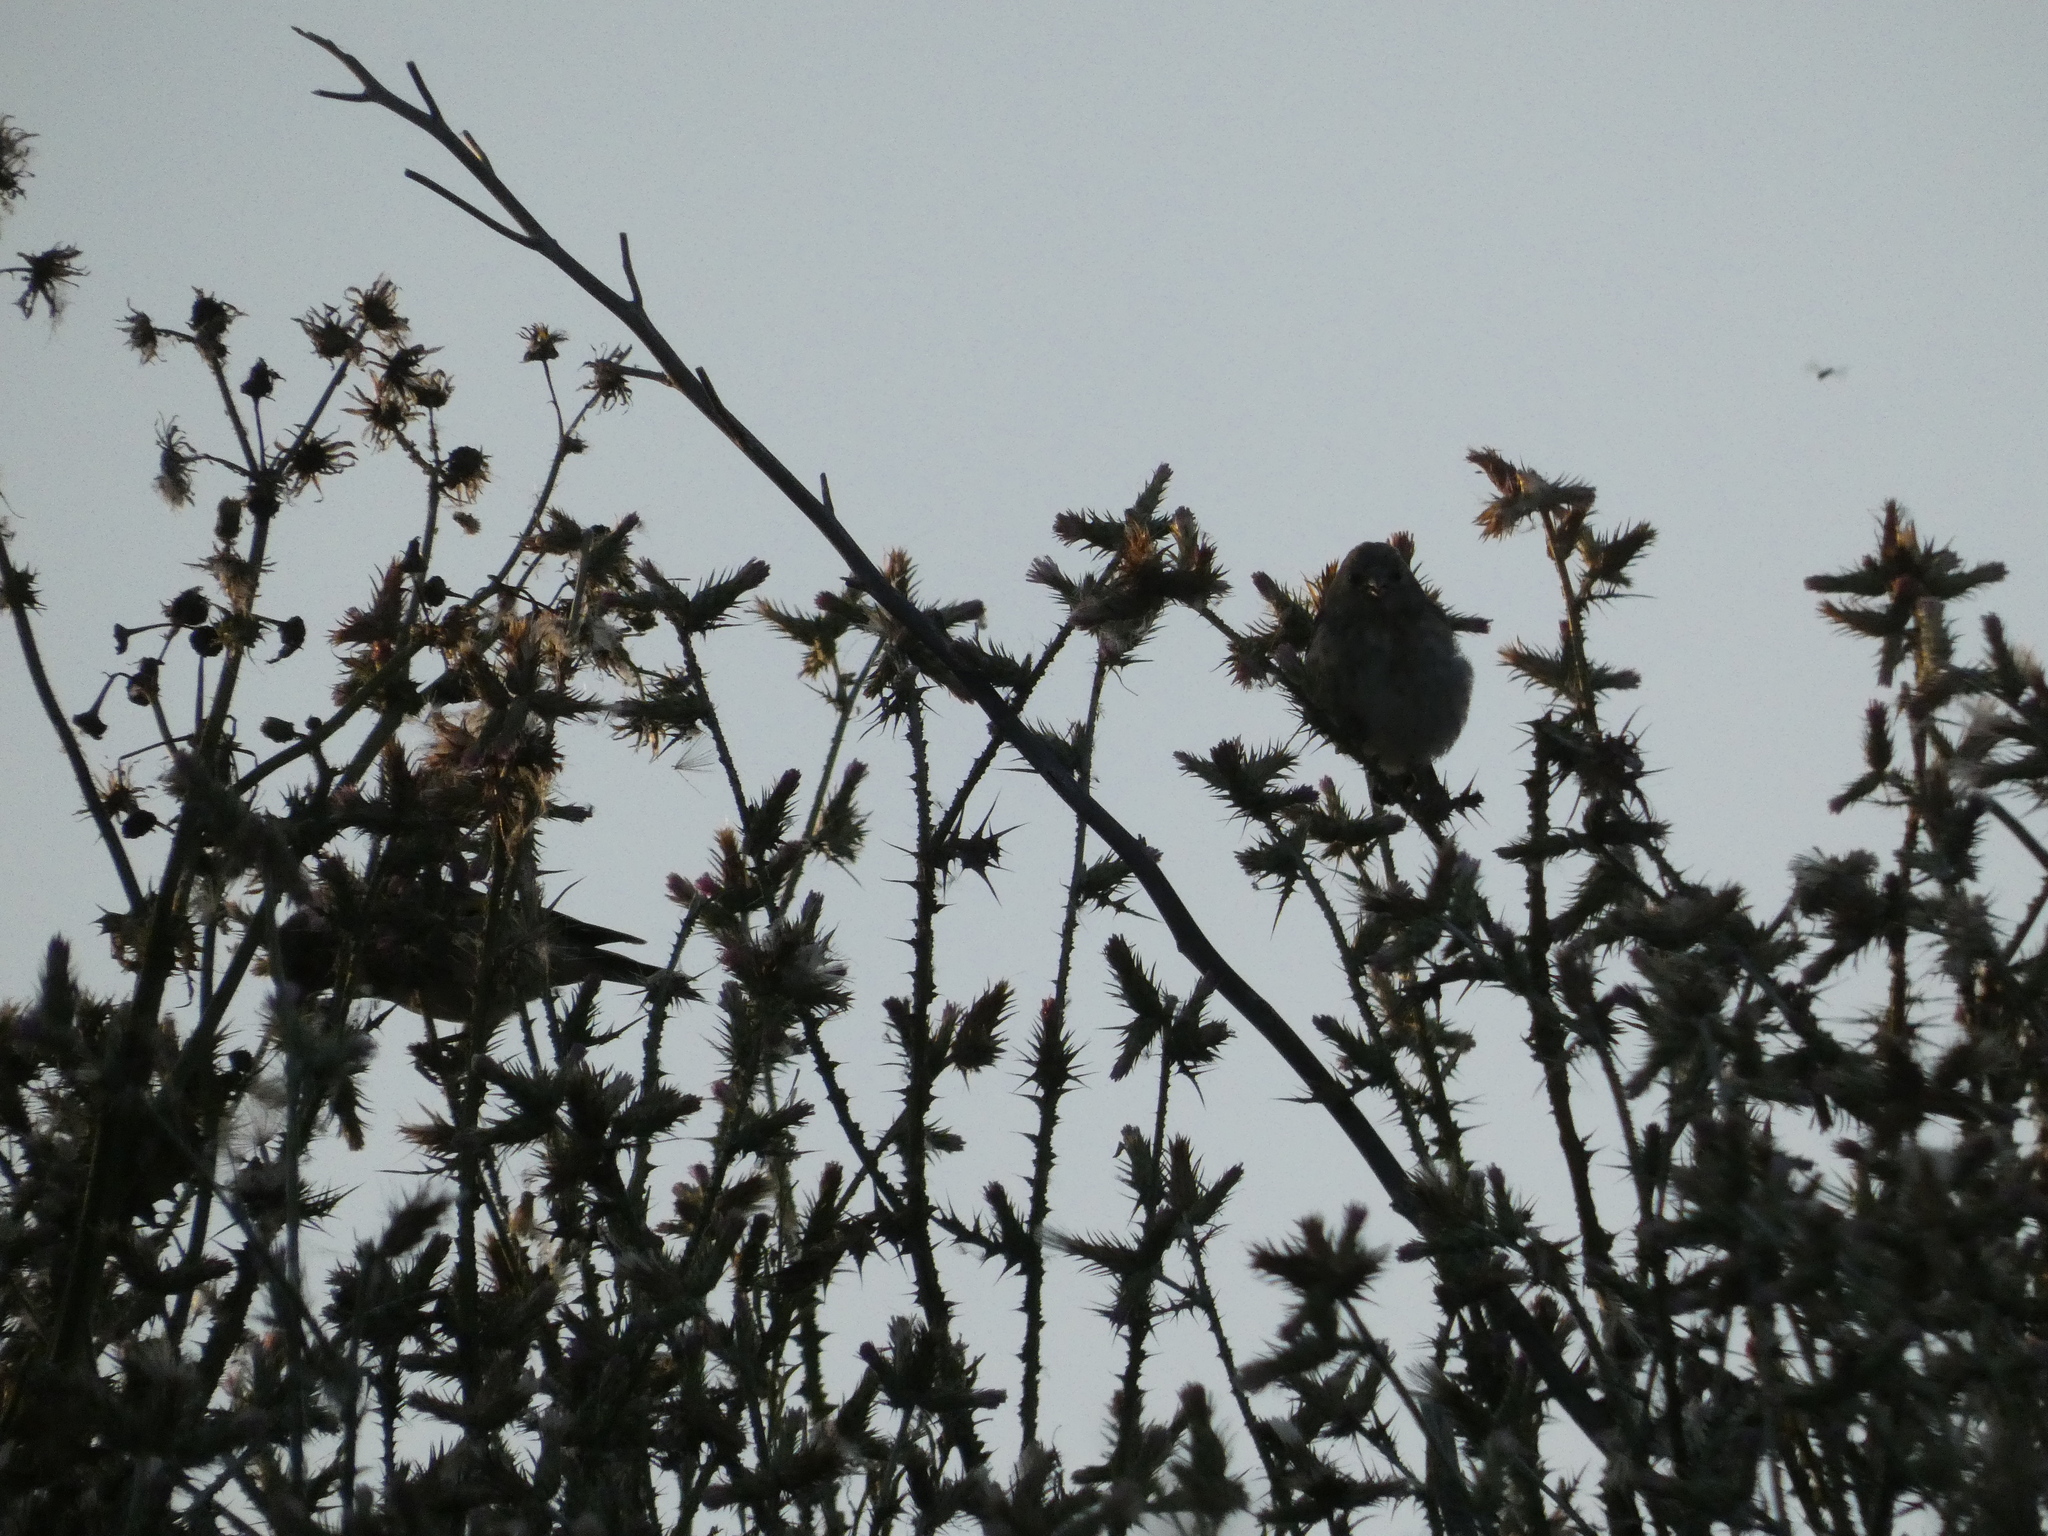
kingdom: Animalia
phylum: Chordata
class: Aves
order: Passeriformes
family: Fringillidae
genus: Carduelis
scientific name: Carduelis carduelis
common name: European goldfinch
